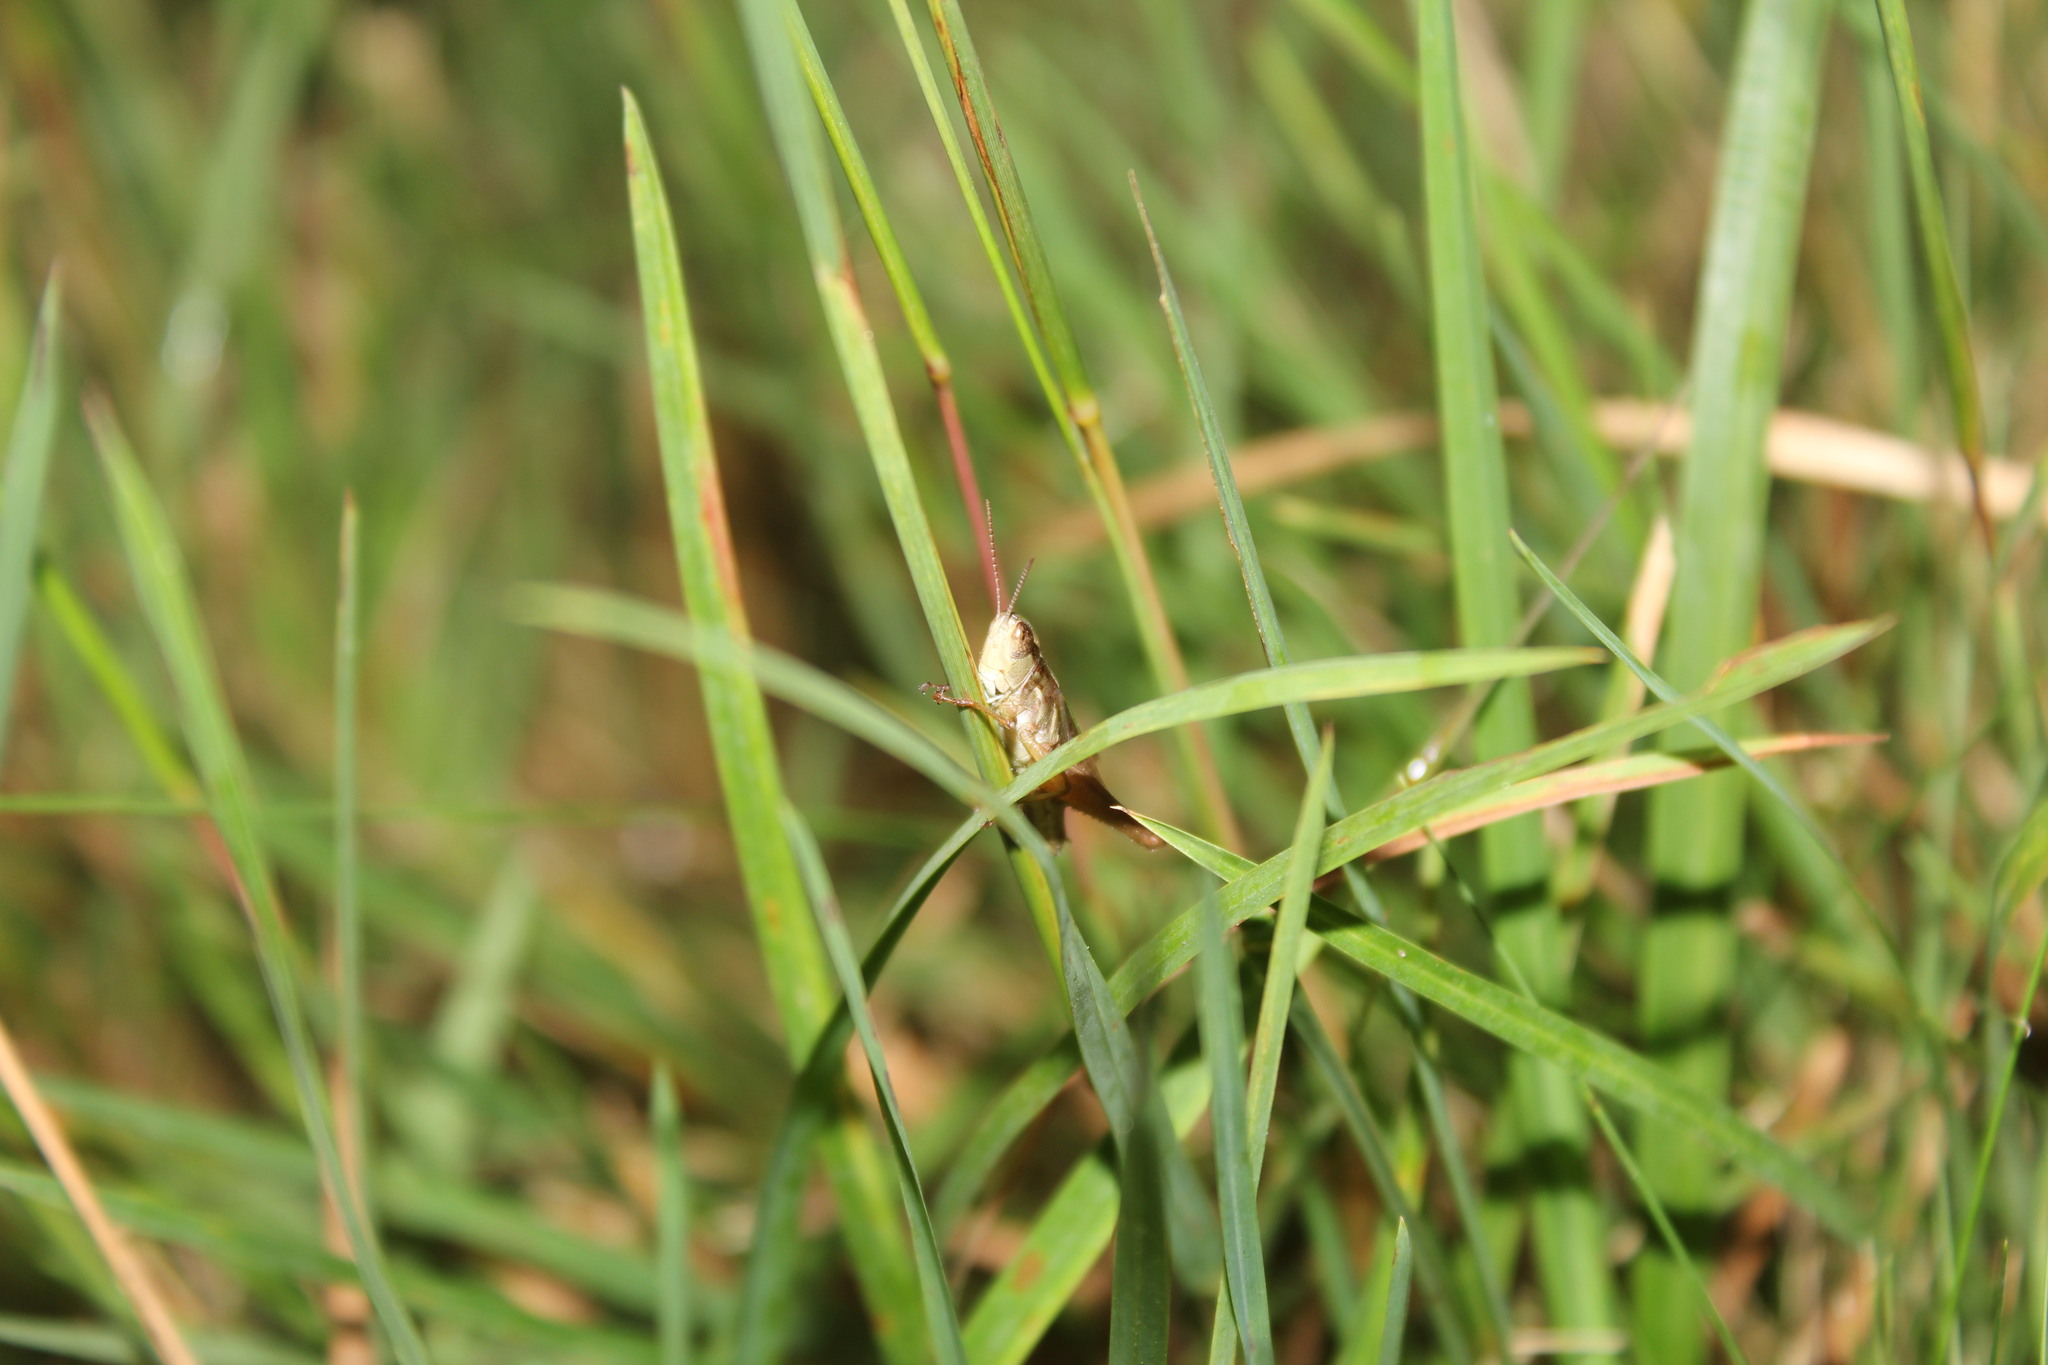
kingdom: Animalia
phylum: Arthropoda
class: Insecta
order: Orthoptera
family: Acrididae
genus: Orphulella
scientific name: Orphulella speciosa
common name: Pasture grasshopper
